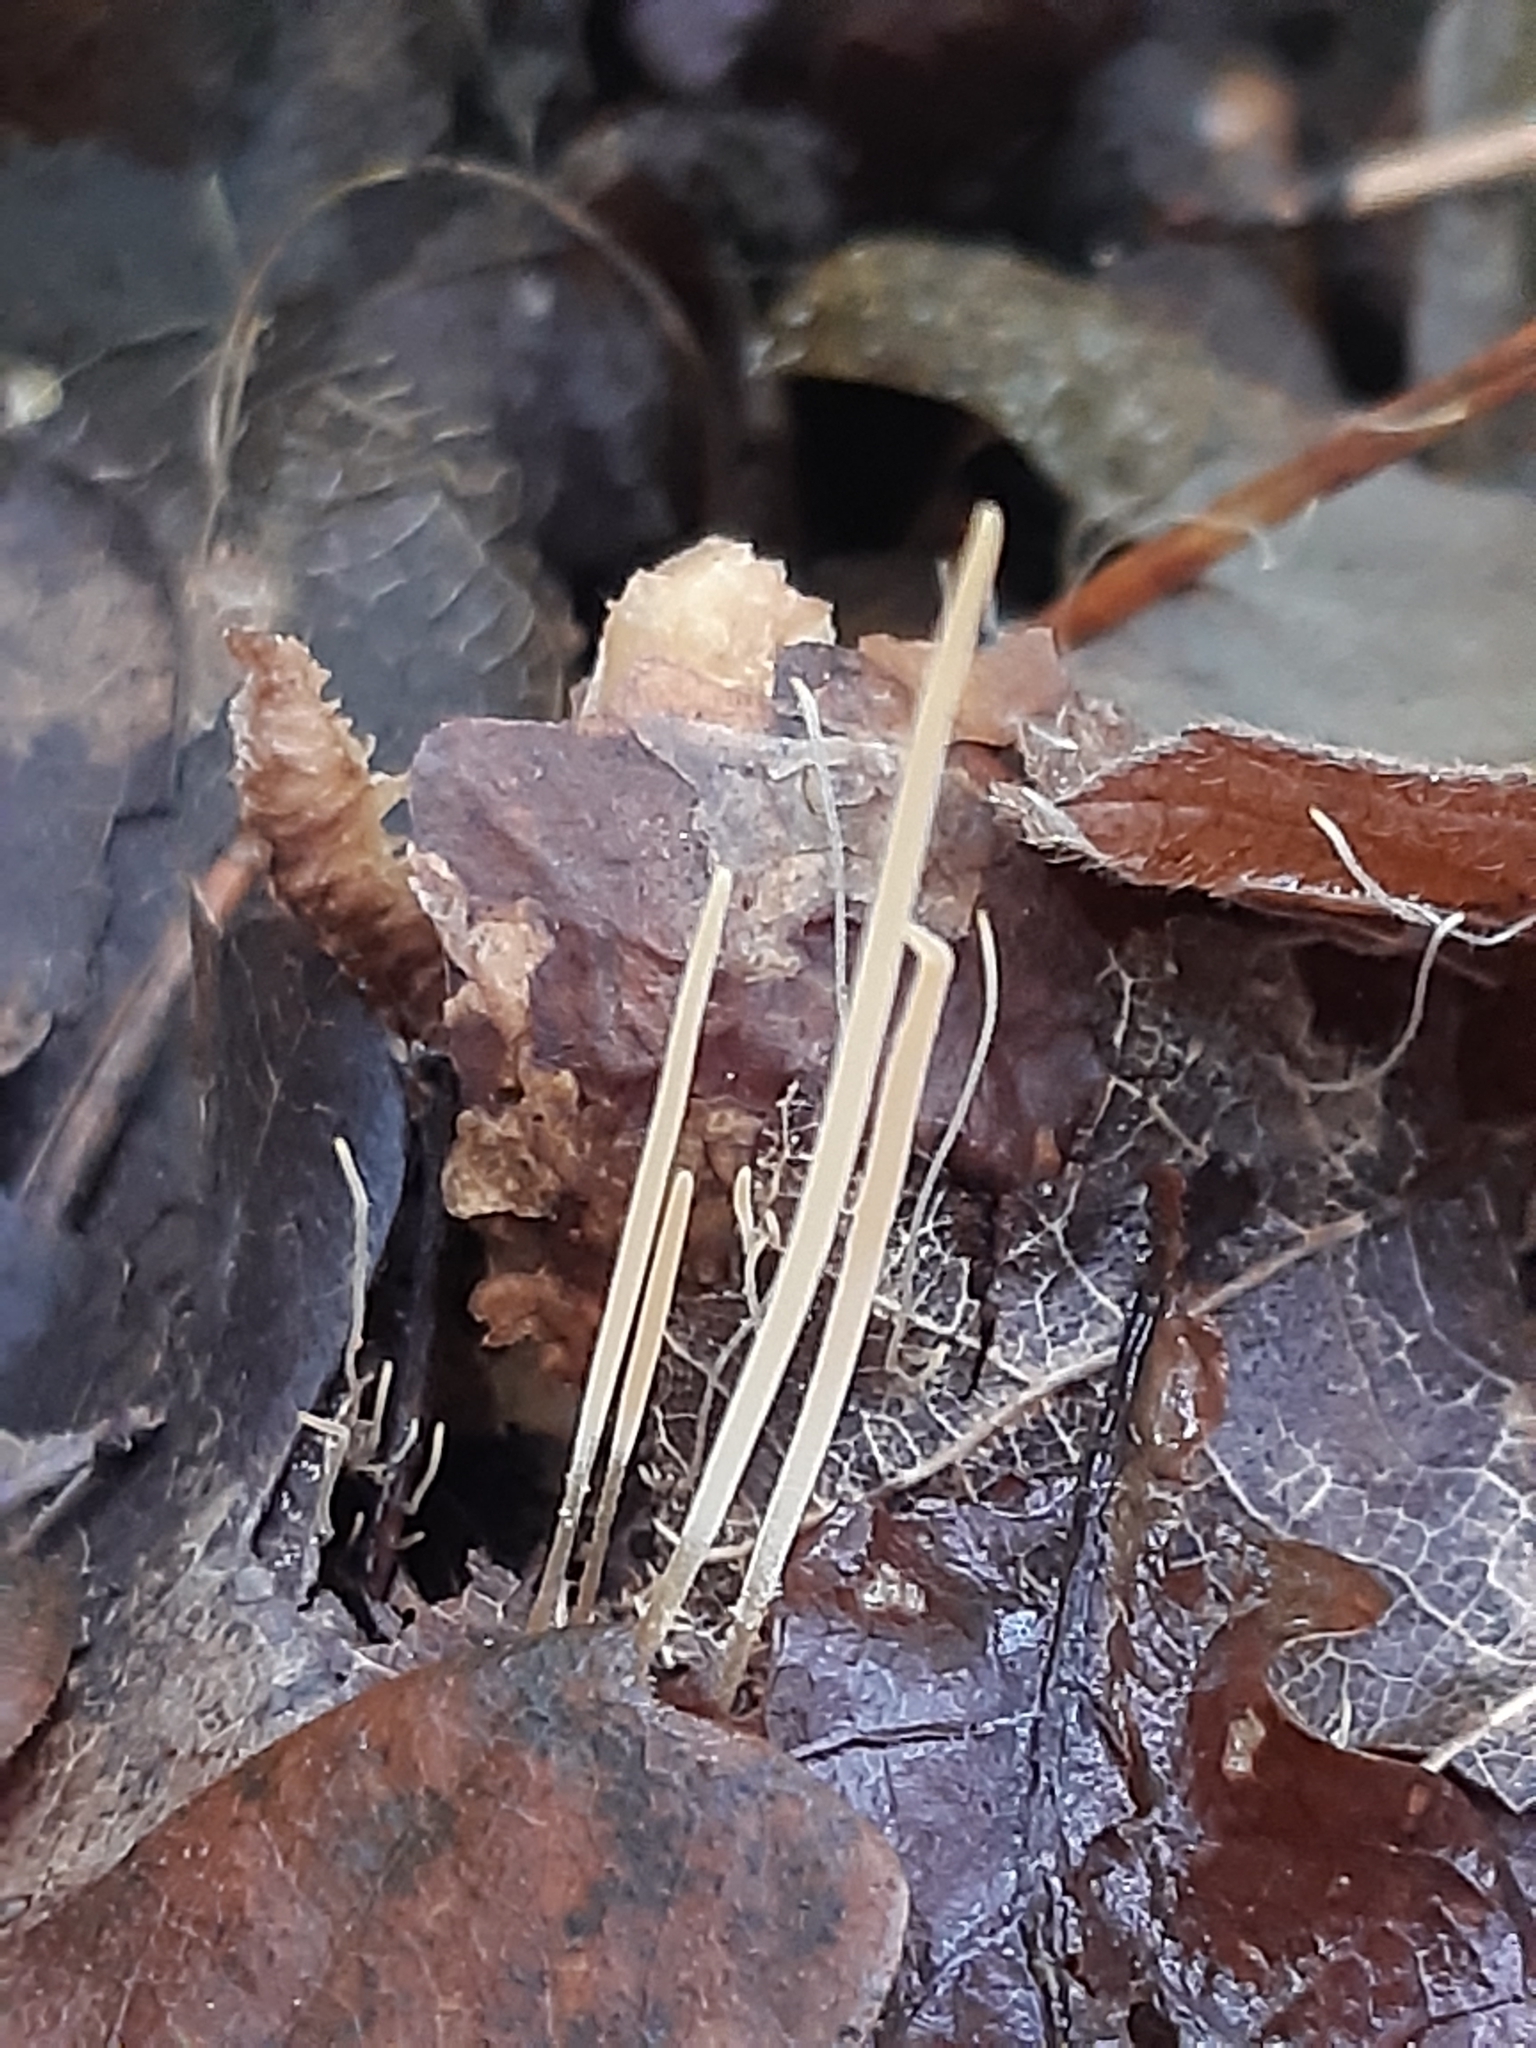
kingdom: Fungi
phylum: Basidiomycota
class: Agaricomycetes
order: Agaricales
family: Typhulaceae
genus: Typhula
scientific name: Typhula juncea
